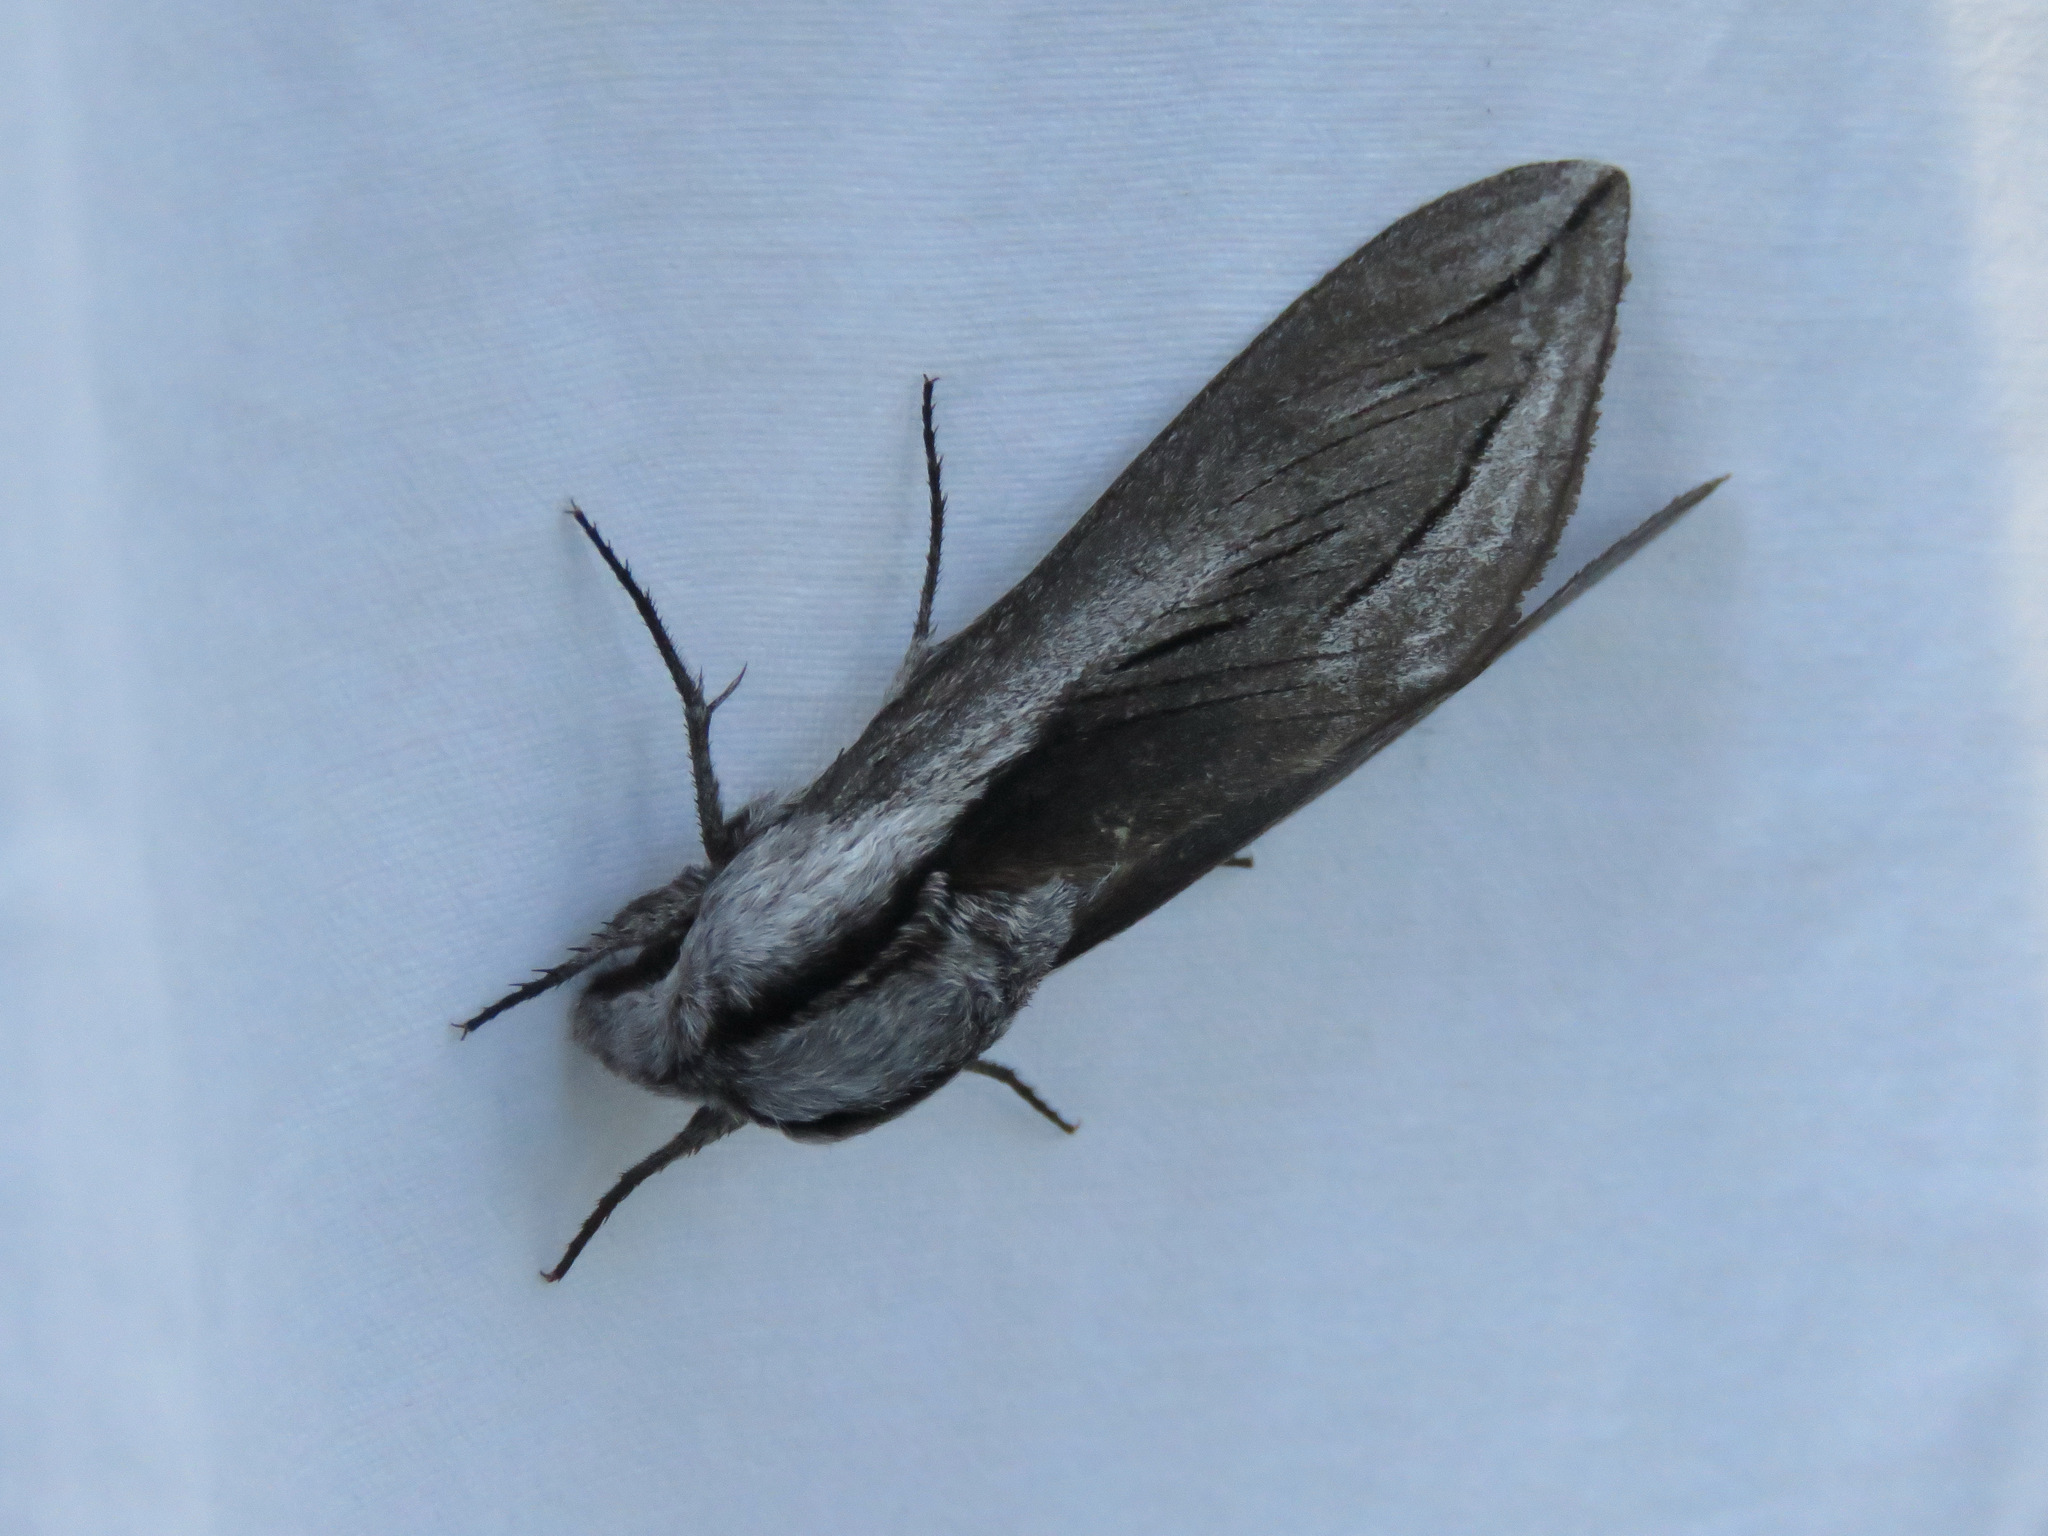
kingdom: Animalia
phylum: Arthropoda
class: Insecta
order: Lepidoptera
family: Sphingidae
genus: Sphinx
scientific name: Sphinx vashti
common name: Snowberry sphinx
